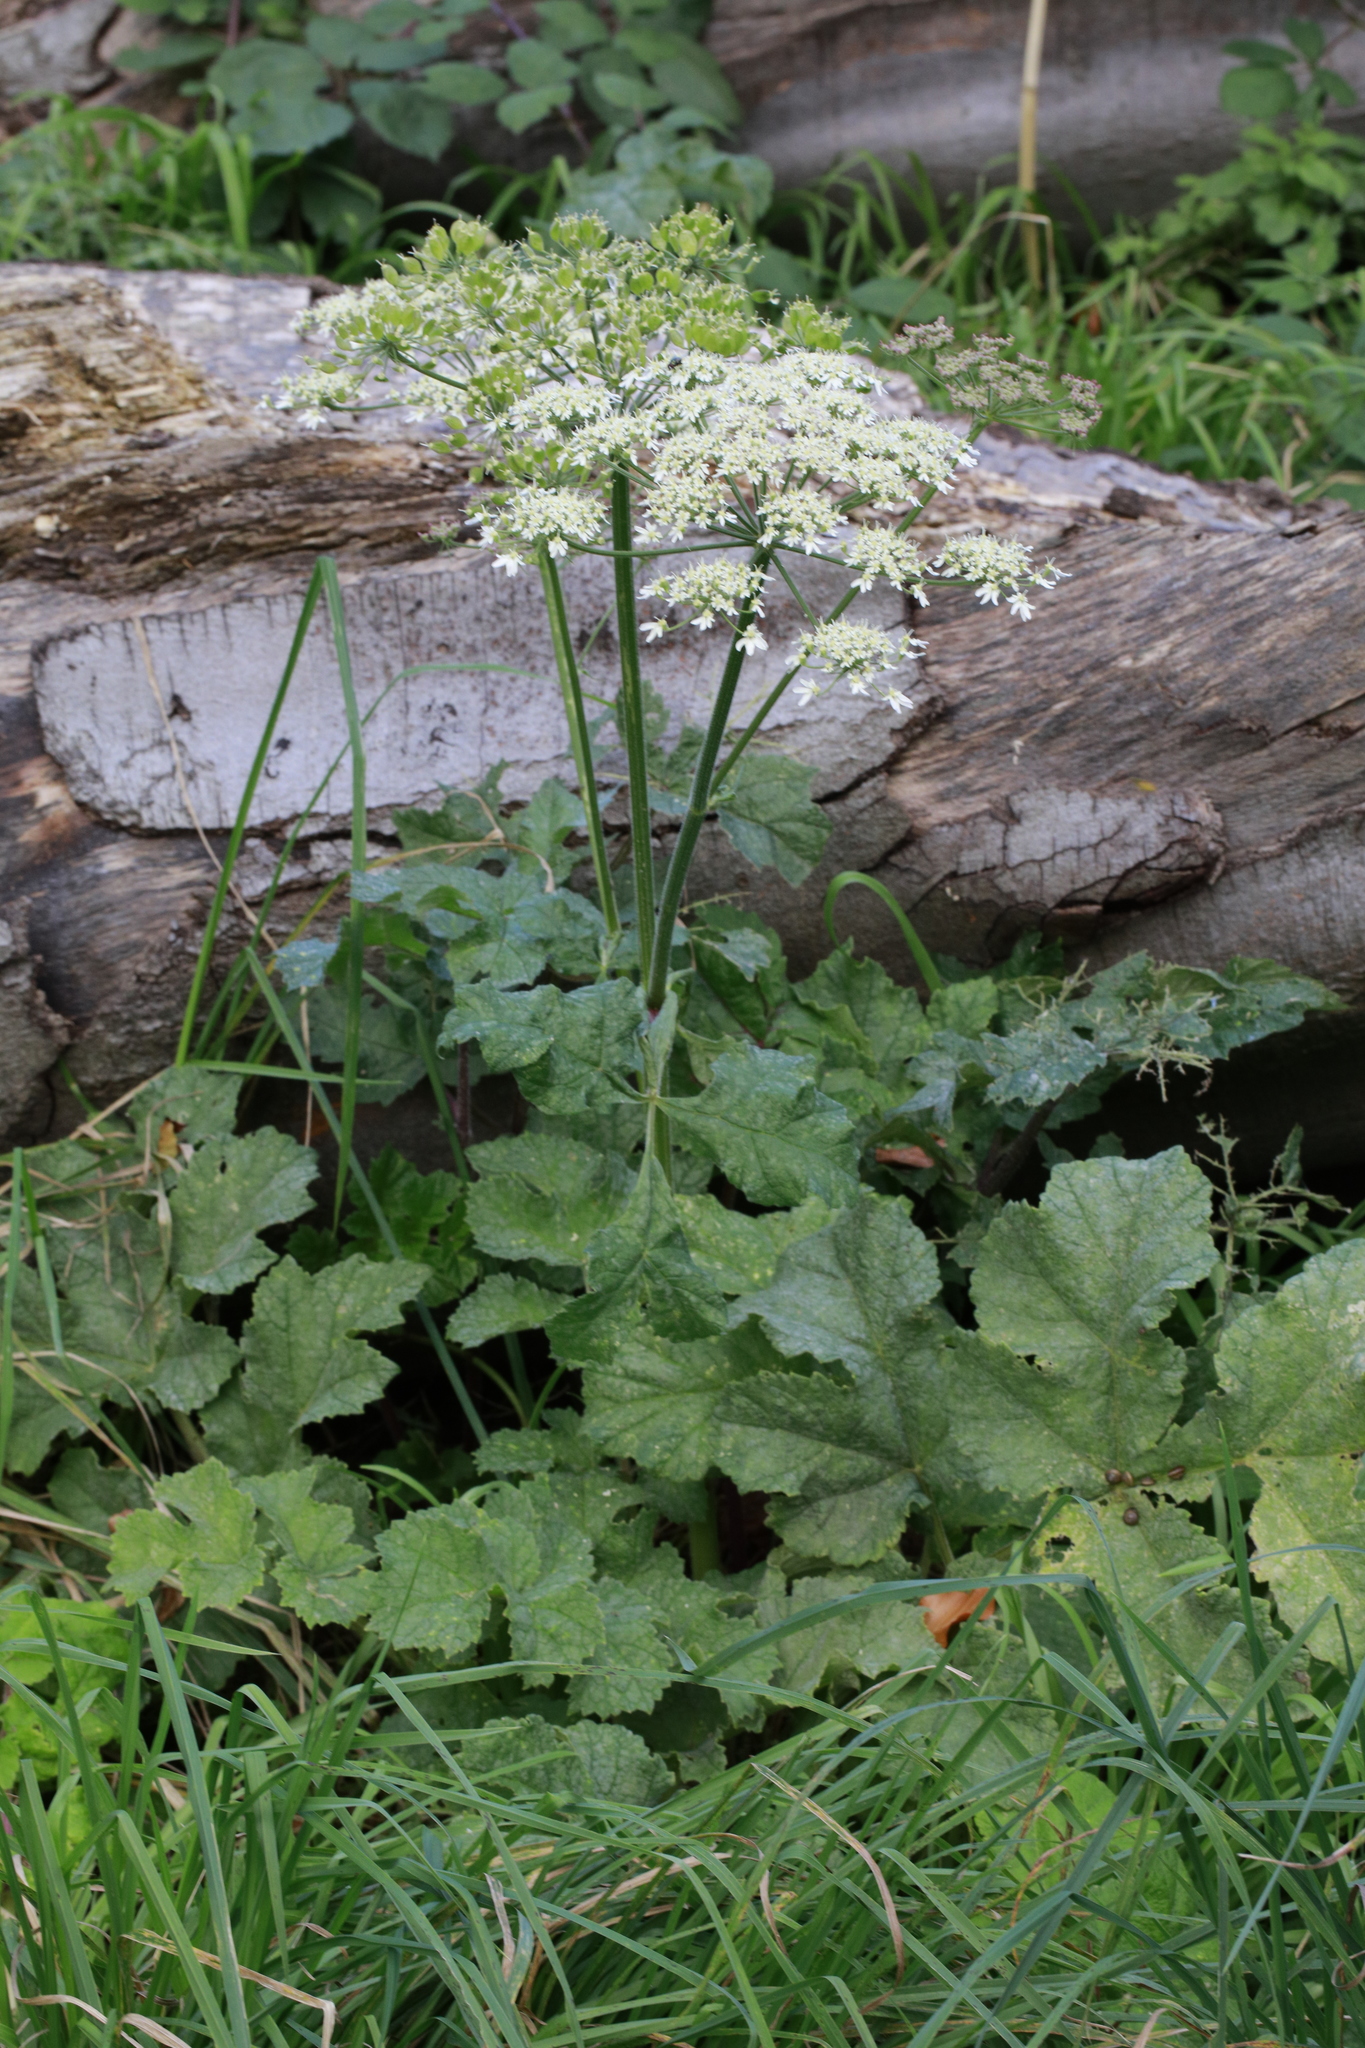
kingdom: Plantae
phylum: Tracheophyta
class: Magnoliopsida
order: Apiales
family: Apiaceae
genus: Heracleum
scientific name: Heracleum sphondylium
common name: Hogweed
